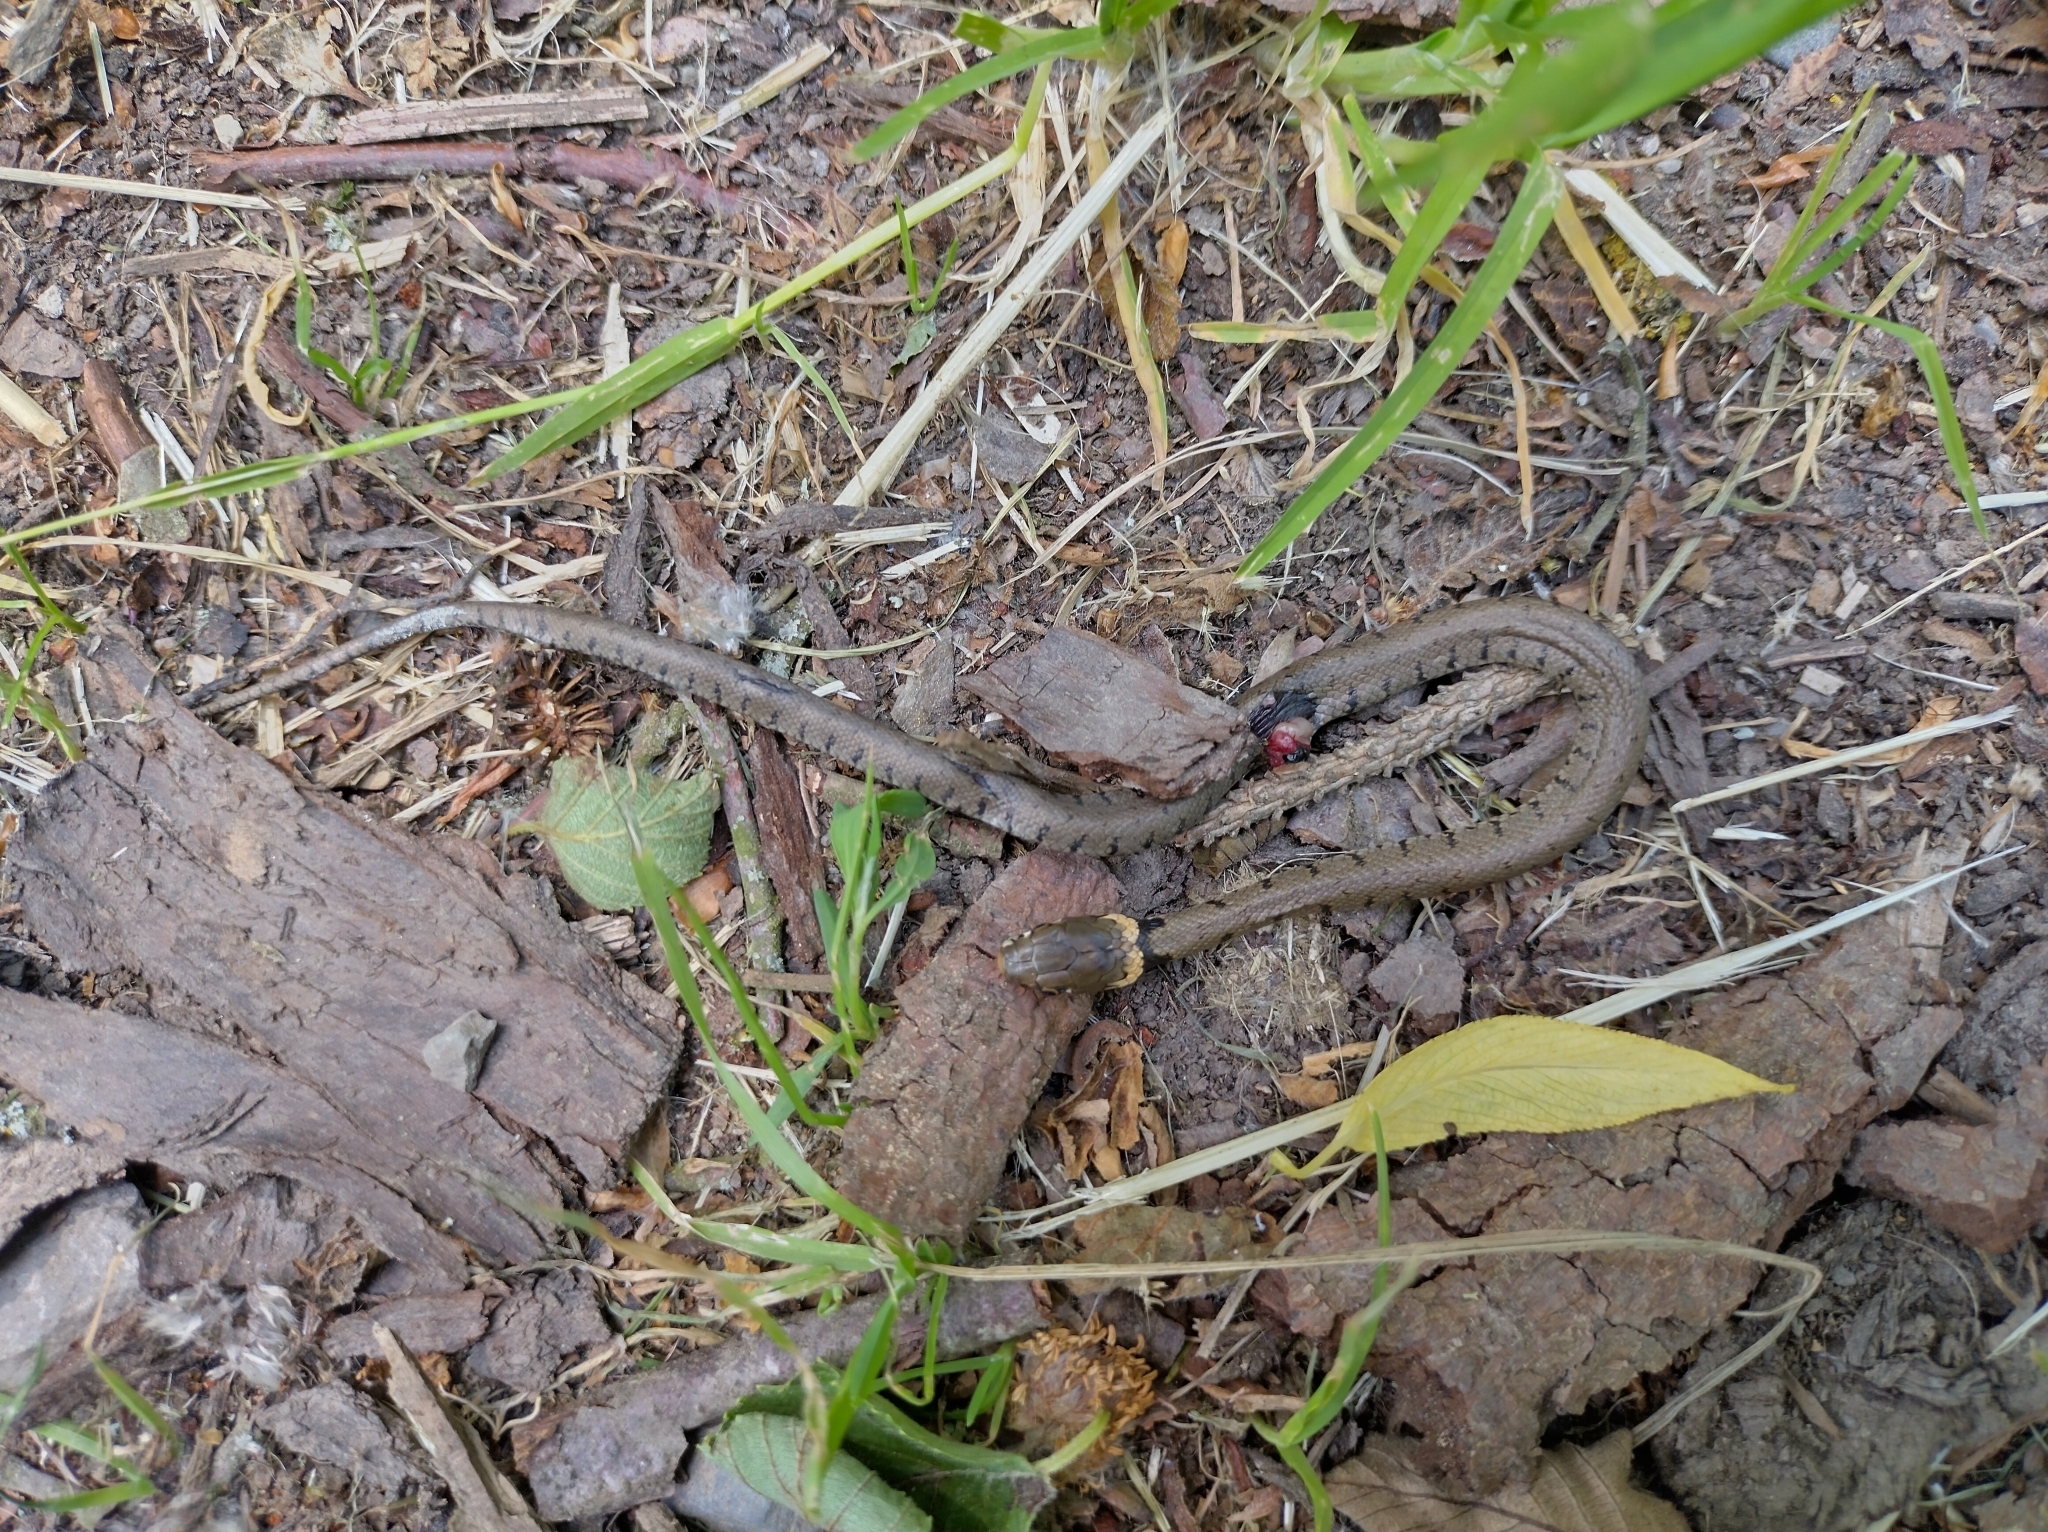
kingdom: Animalia
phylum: Chordata
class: Squamata
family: Colubridae
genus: Natrix
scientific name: Natrix helvetica
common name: Banded grass snake
